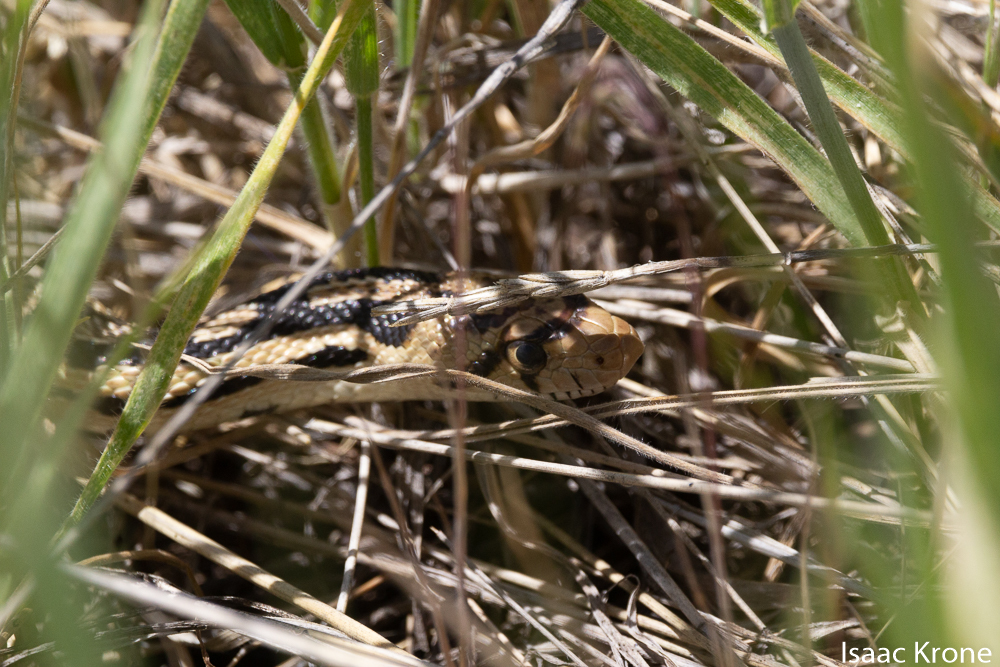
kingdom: Animalia
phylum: Chordata
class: Squamata
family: Colubridae
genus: Pituophis
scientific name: Pituophis catenifer
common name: Gopher snake
